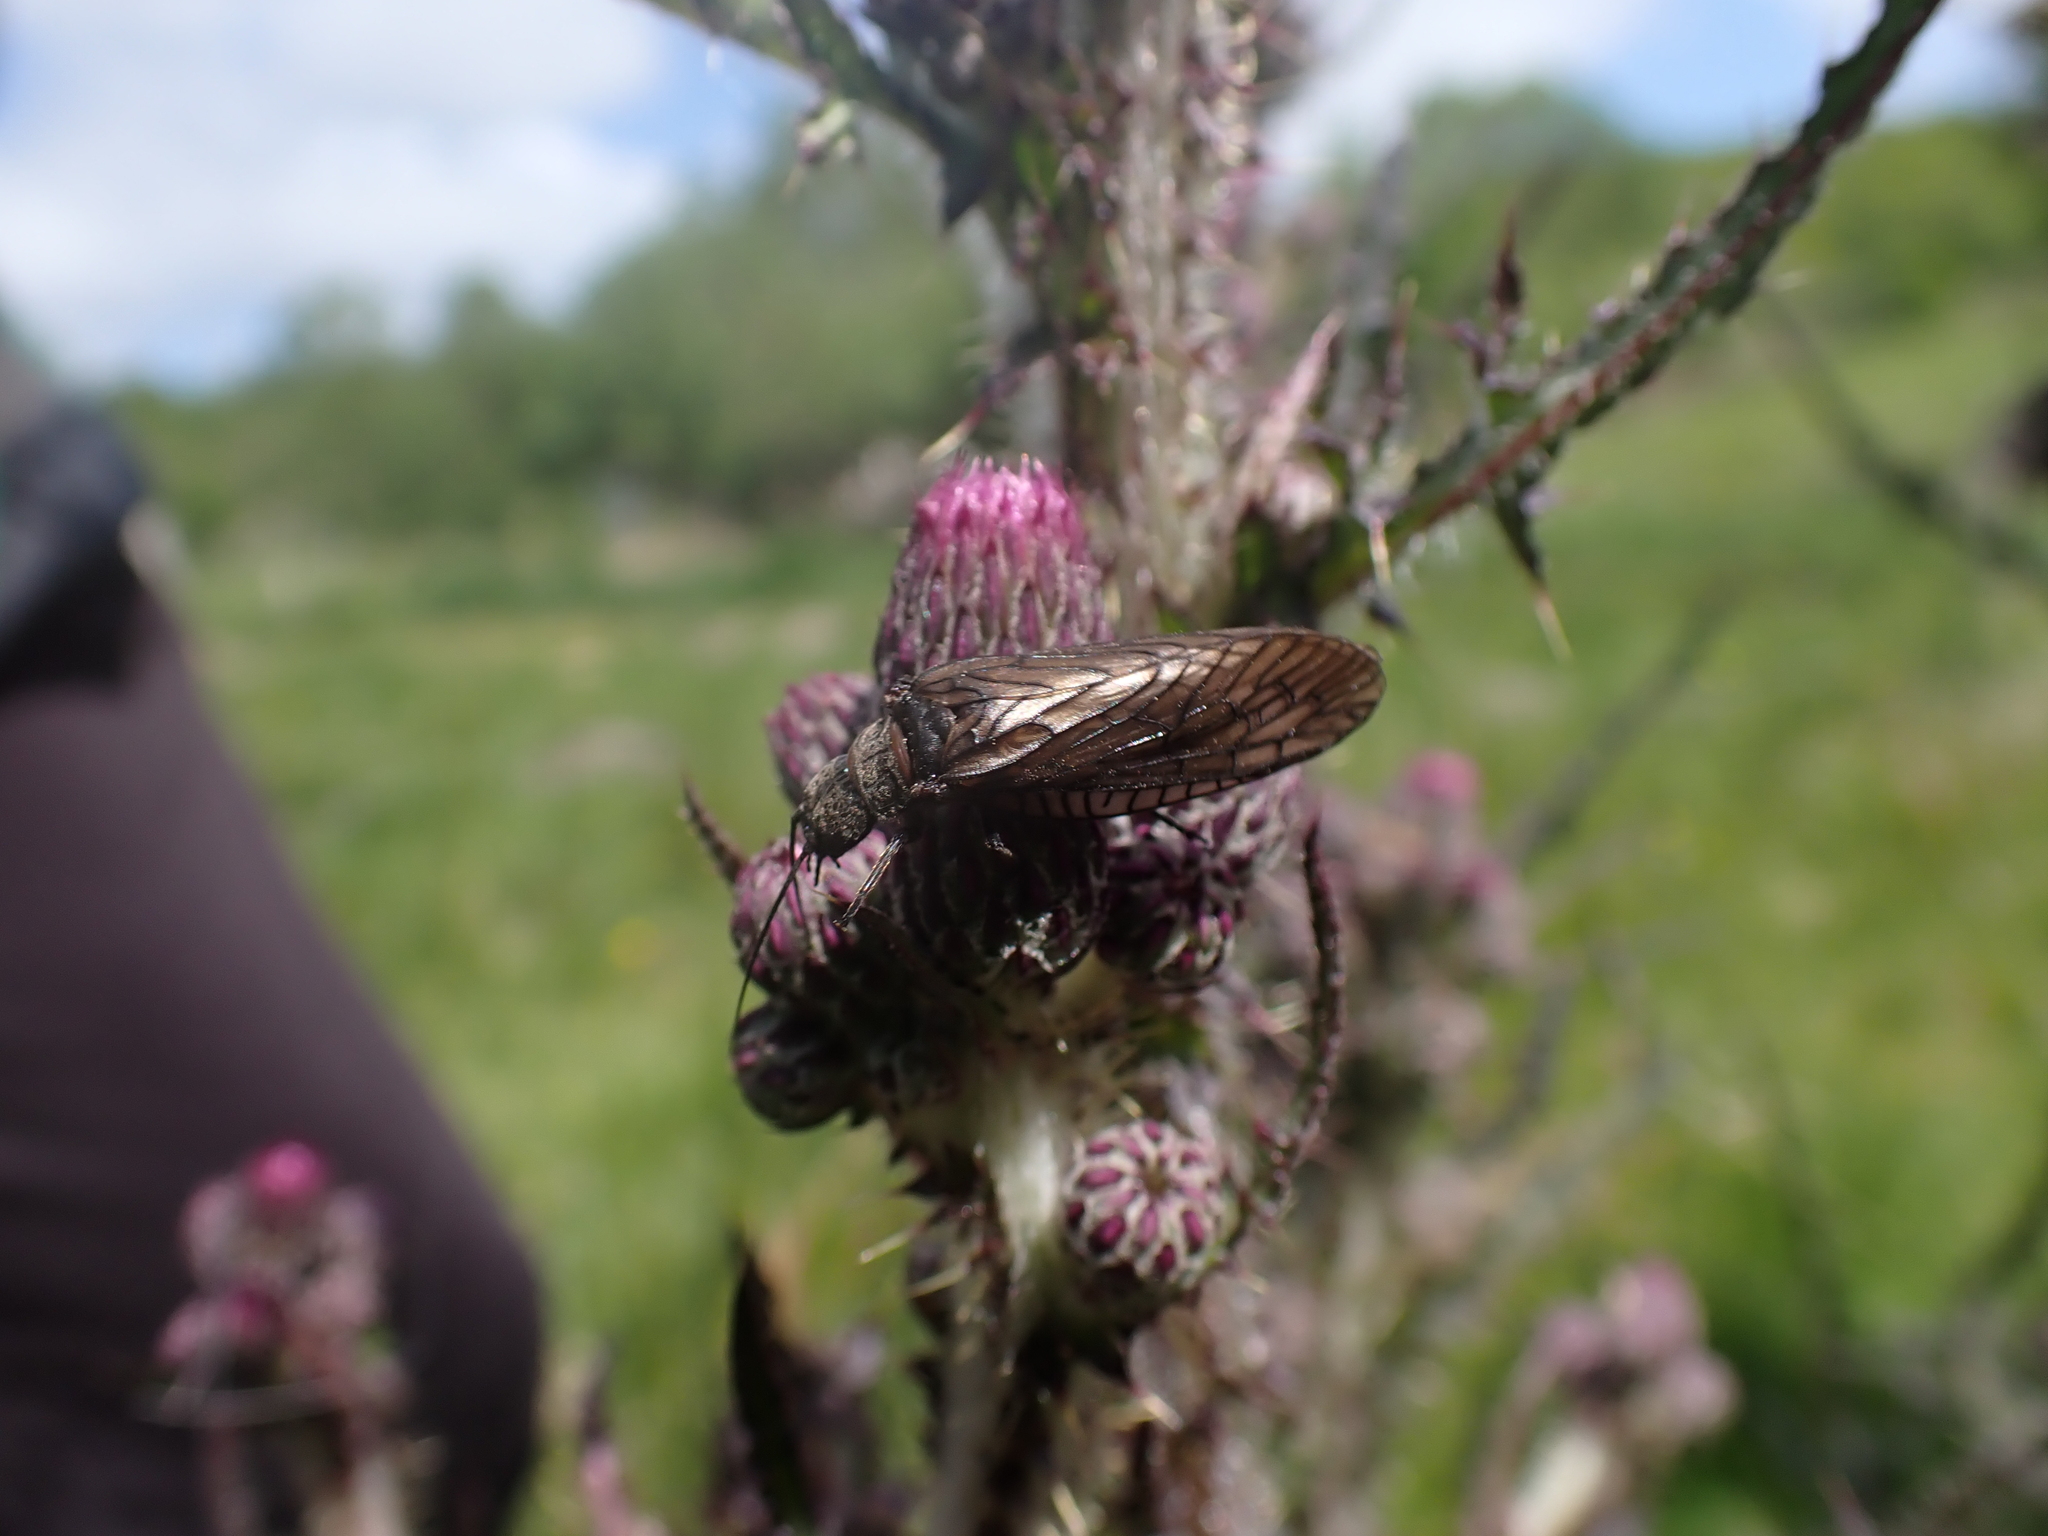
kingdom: Animalia
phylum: Arthropoda
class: Insecta
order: Megaloptera
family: Sialidae
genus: Sialis
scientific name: Sialis
